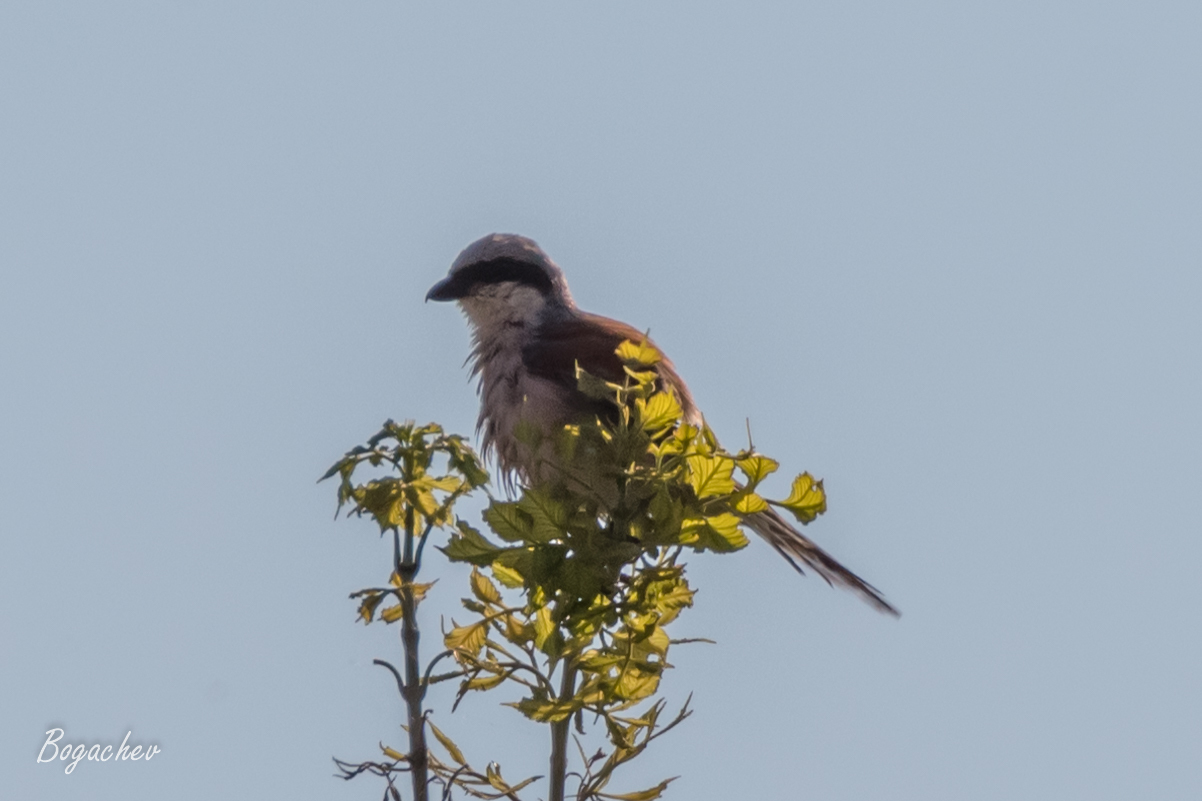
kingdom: Animalia
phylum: Chordata
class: Aves
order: Passeriformes
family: Laniidae
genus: Lanius
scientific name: Lanius collurio
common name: Red-backed shrike
